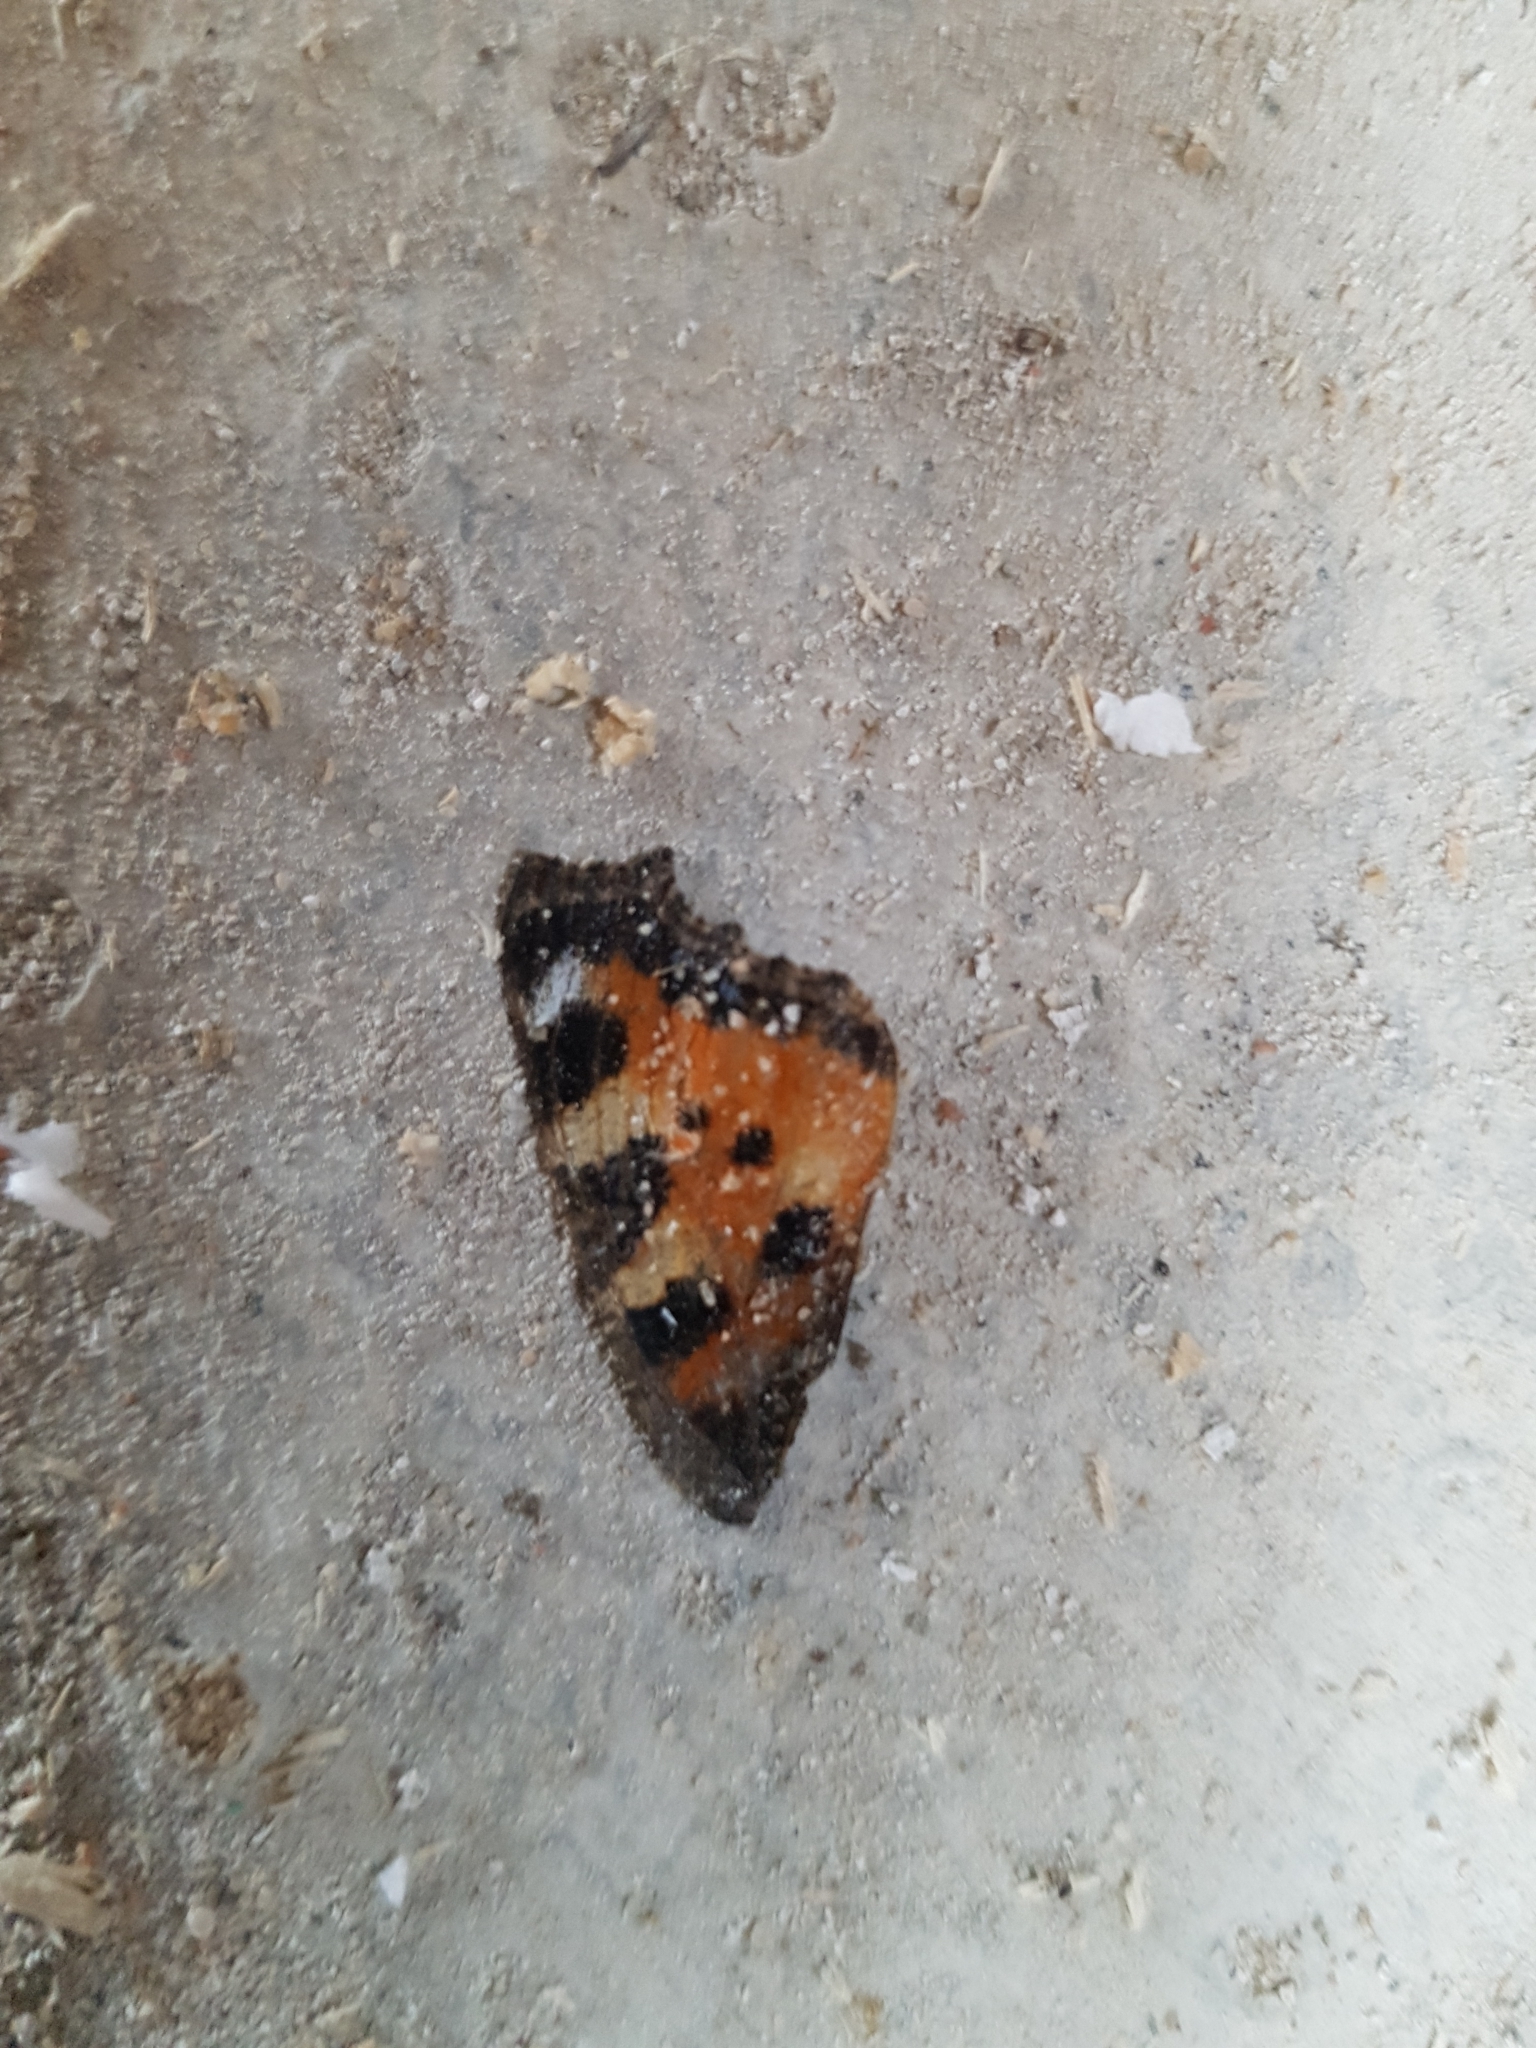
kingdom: Animalia
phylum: Arthropoda
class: Insecta
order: Lepidoptera
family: Nymphalidae
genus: Aglais
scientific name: Aglais urticae
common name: Small tortoiseshell
